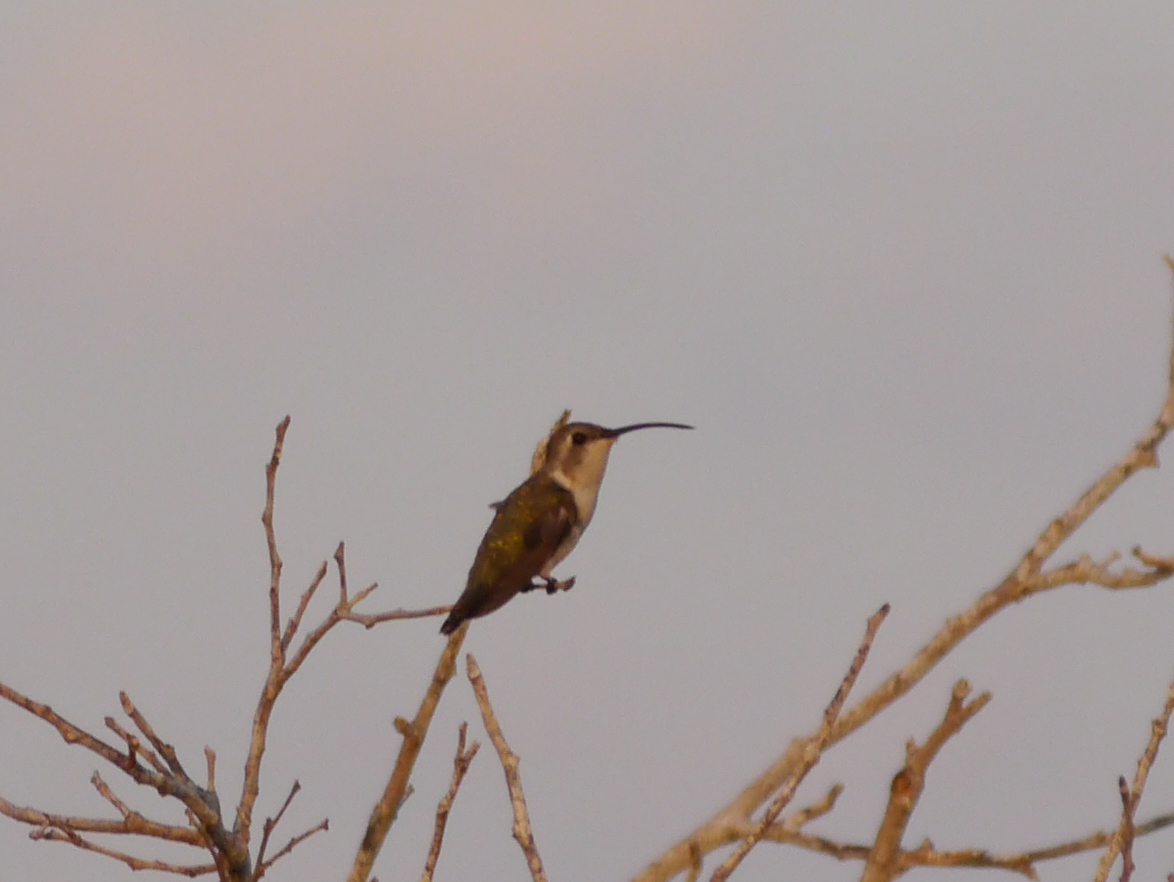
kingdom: Animalia
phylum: Chordata
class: Aves
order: Apodiformes
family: Trochilidae
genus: Doricha
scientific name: Doricha eliza
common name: Mexican sheartail
